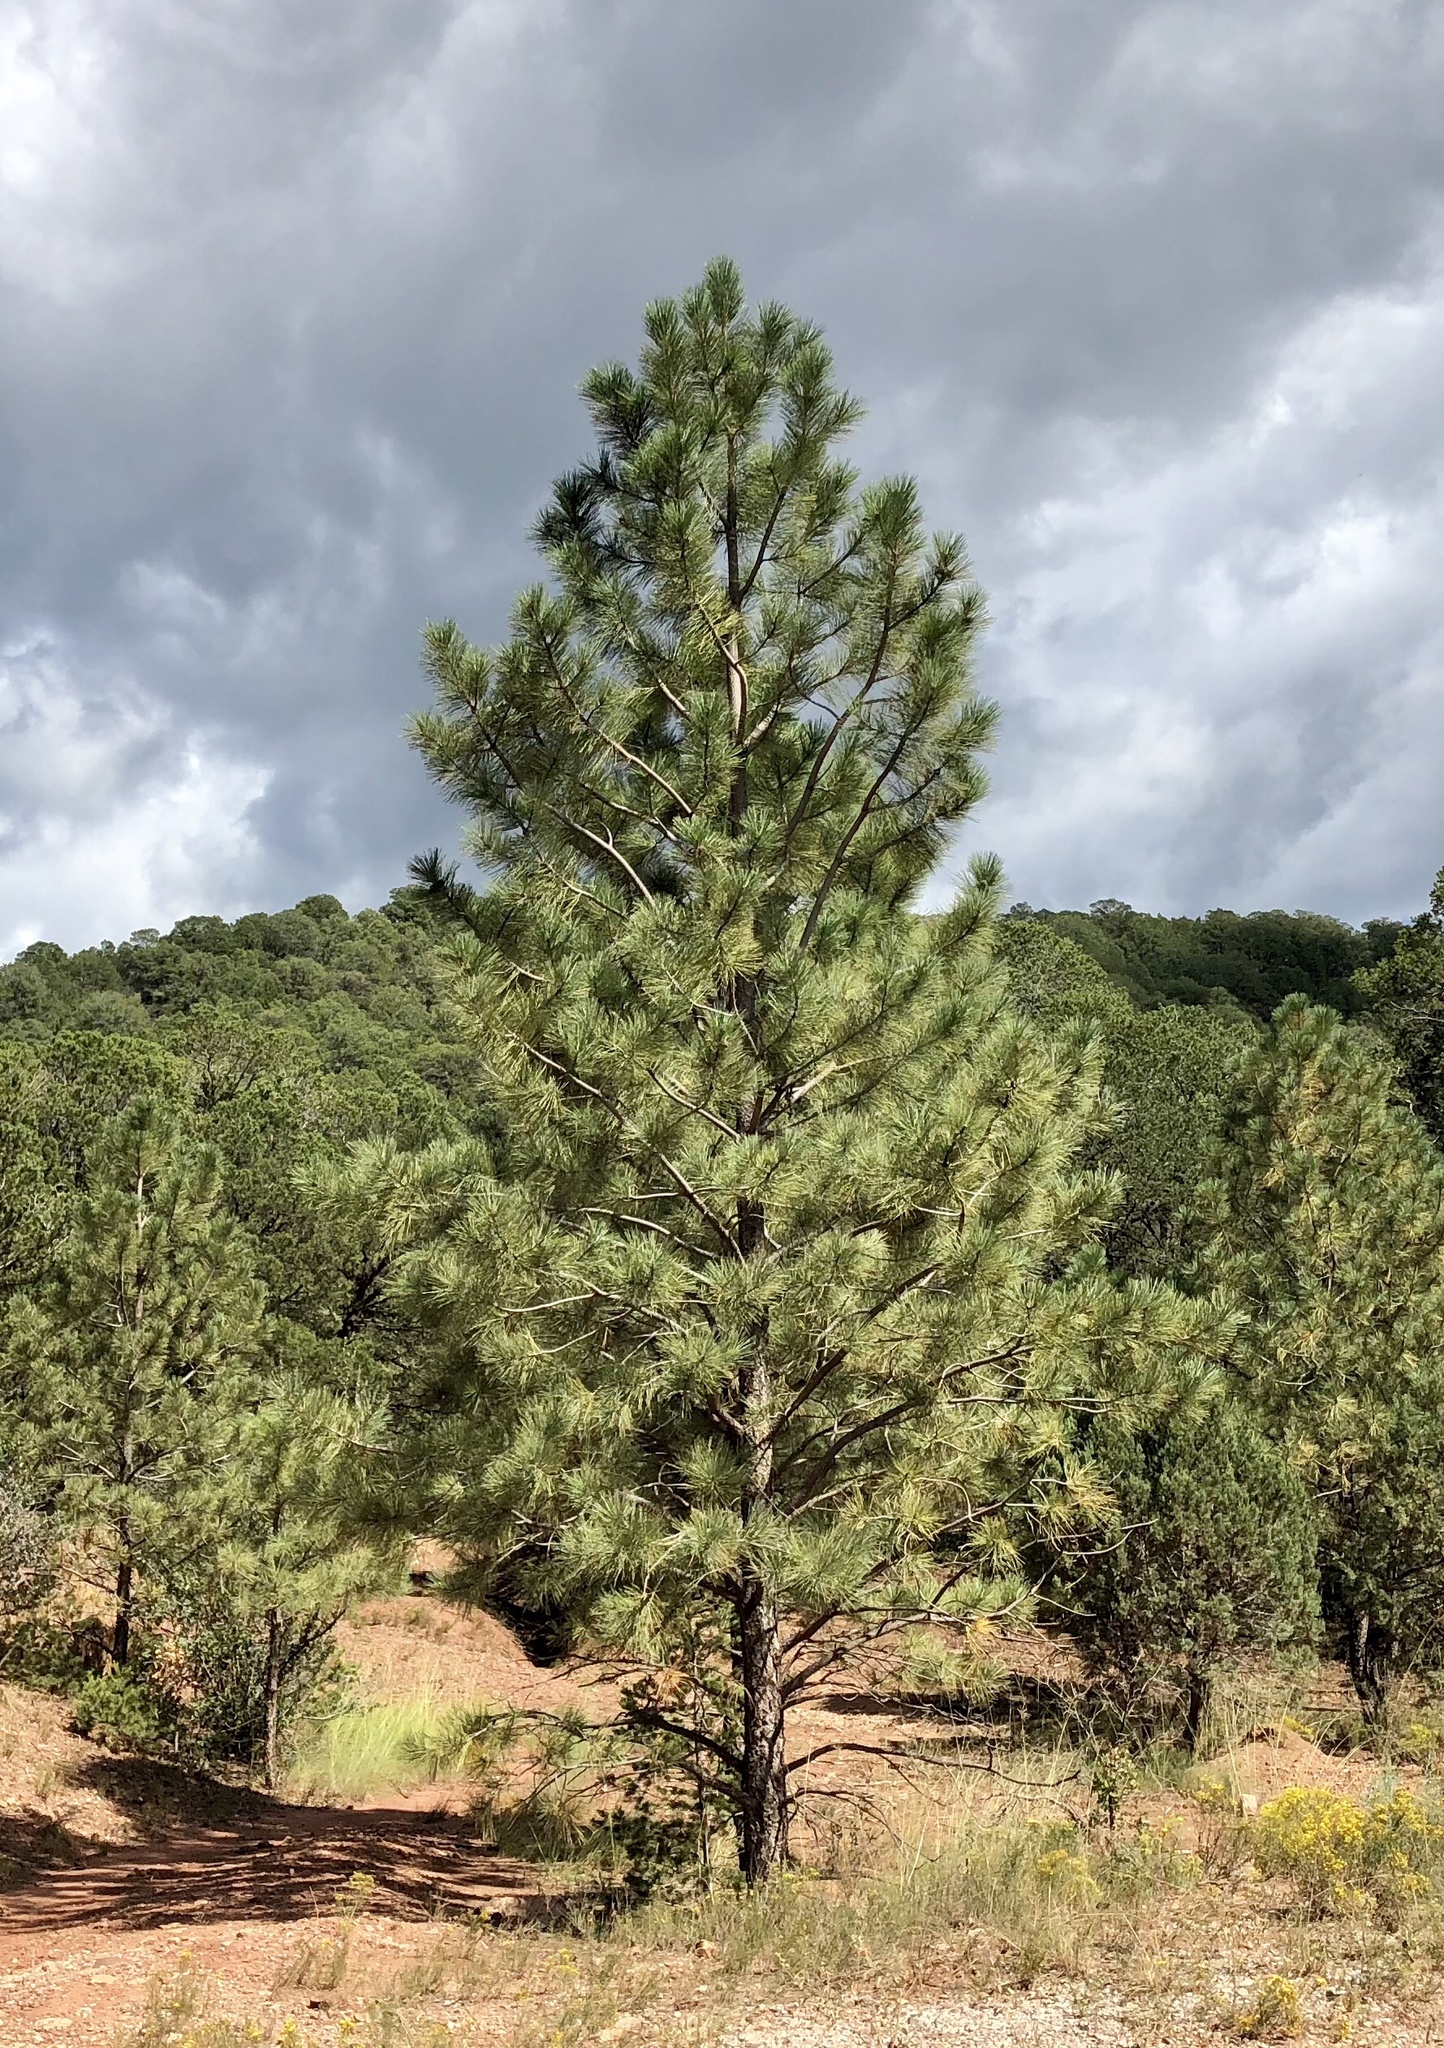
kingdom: Plantae
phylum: Tracheophyta
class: Pinopsida
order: Pinales
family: Pinaceae
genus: Pinus
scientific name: Pinus ponderosa
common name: Western yellow-pine
